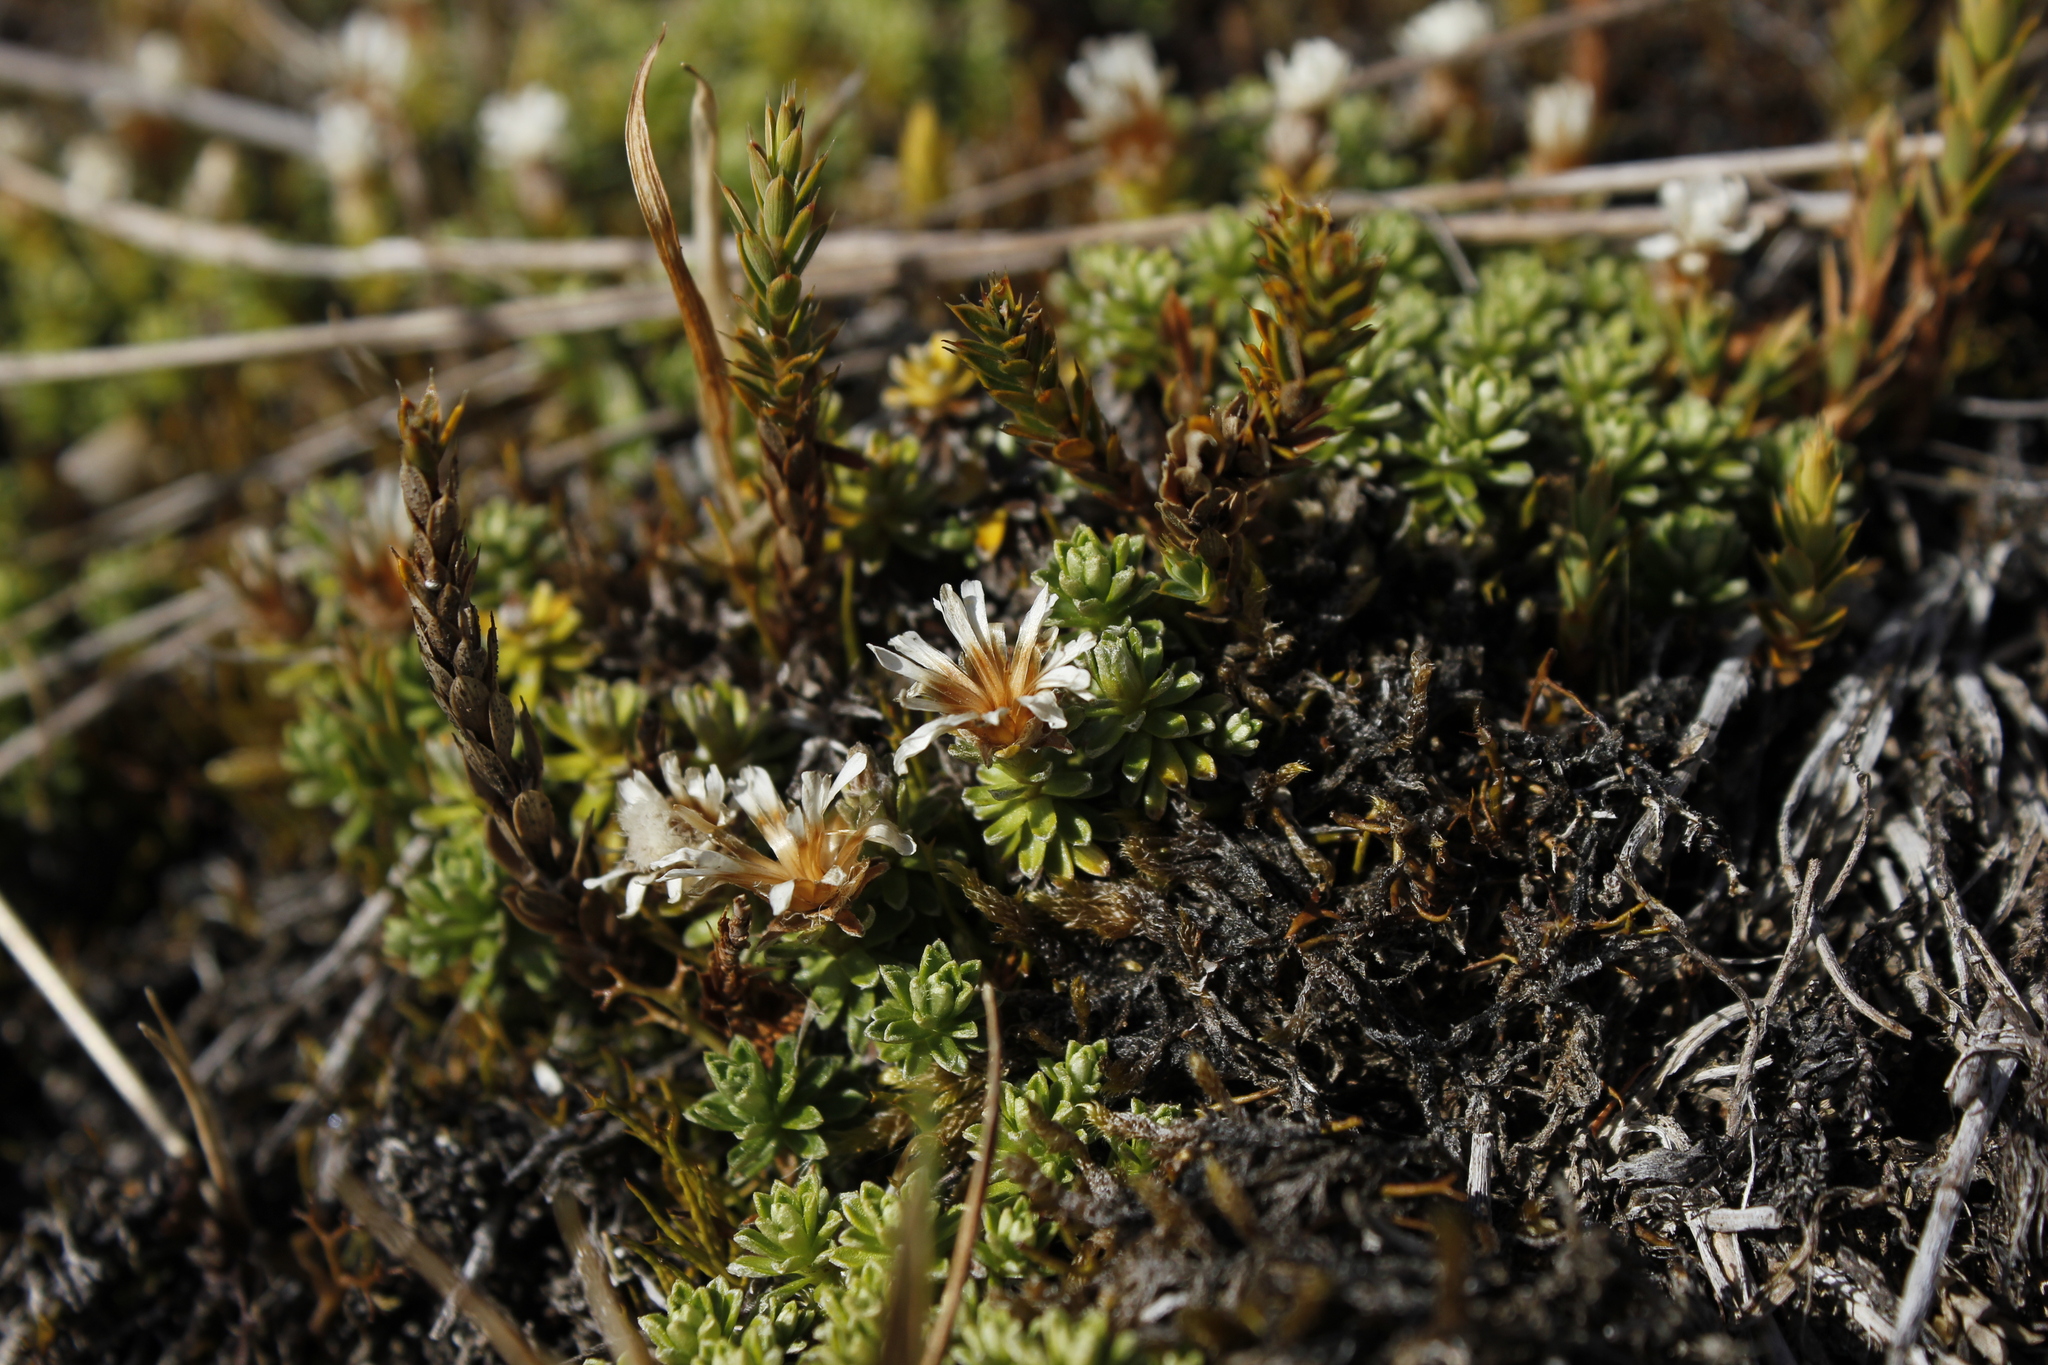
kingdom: Plantae
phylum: Tracheophyta
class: Magnoliopsida
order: Asterales
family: Asteraceae
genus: Raoulia
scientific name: Raoulia subsericea
